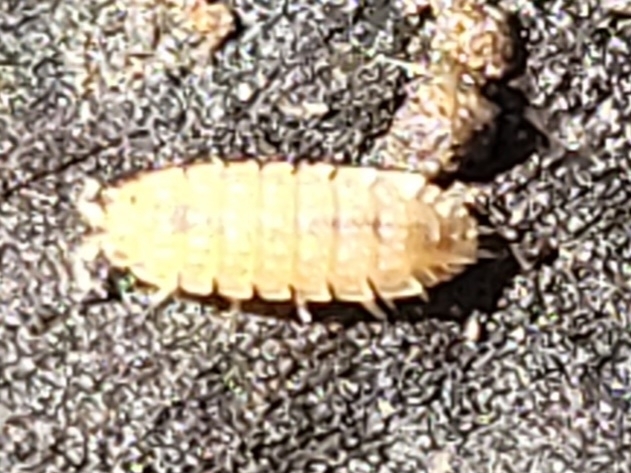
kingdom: Animalia
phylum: Arthropoda
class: Malacostraca
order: Isopoda
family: Trichoniscidae
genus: Haplophthalmus
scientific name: Haplophthalmus danicus
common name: Pillbug
